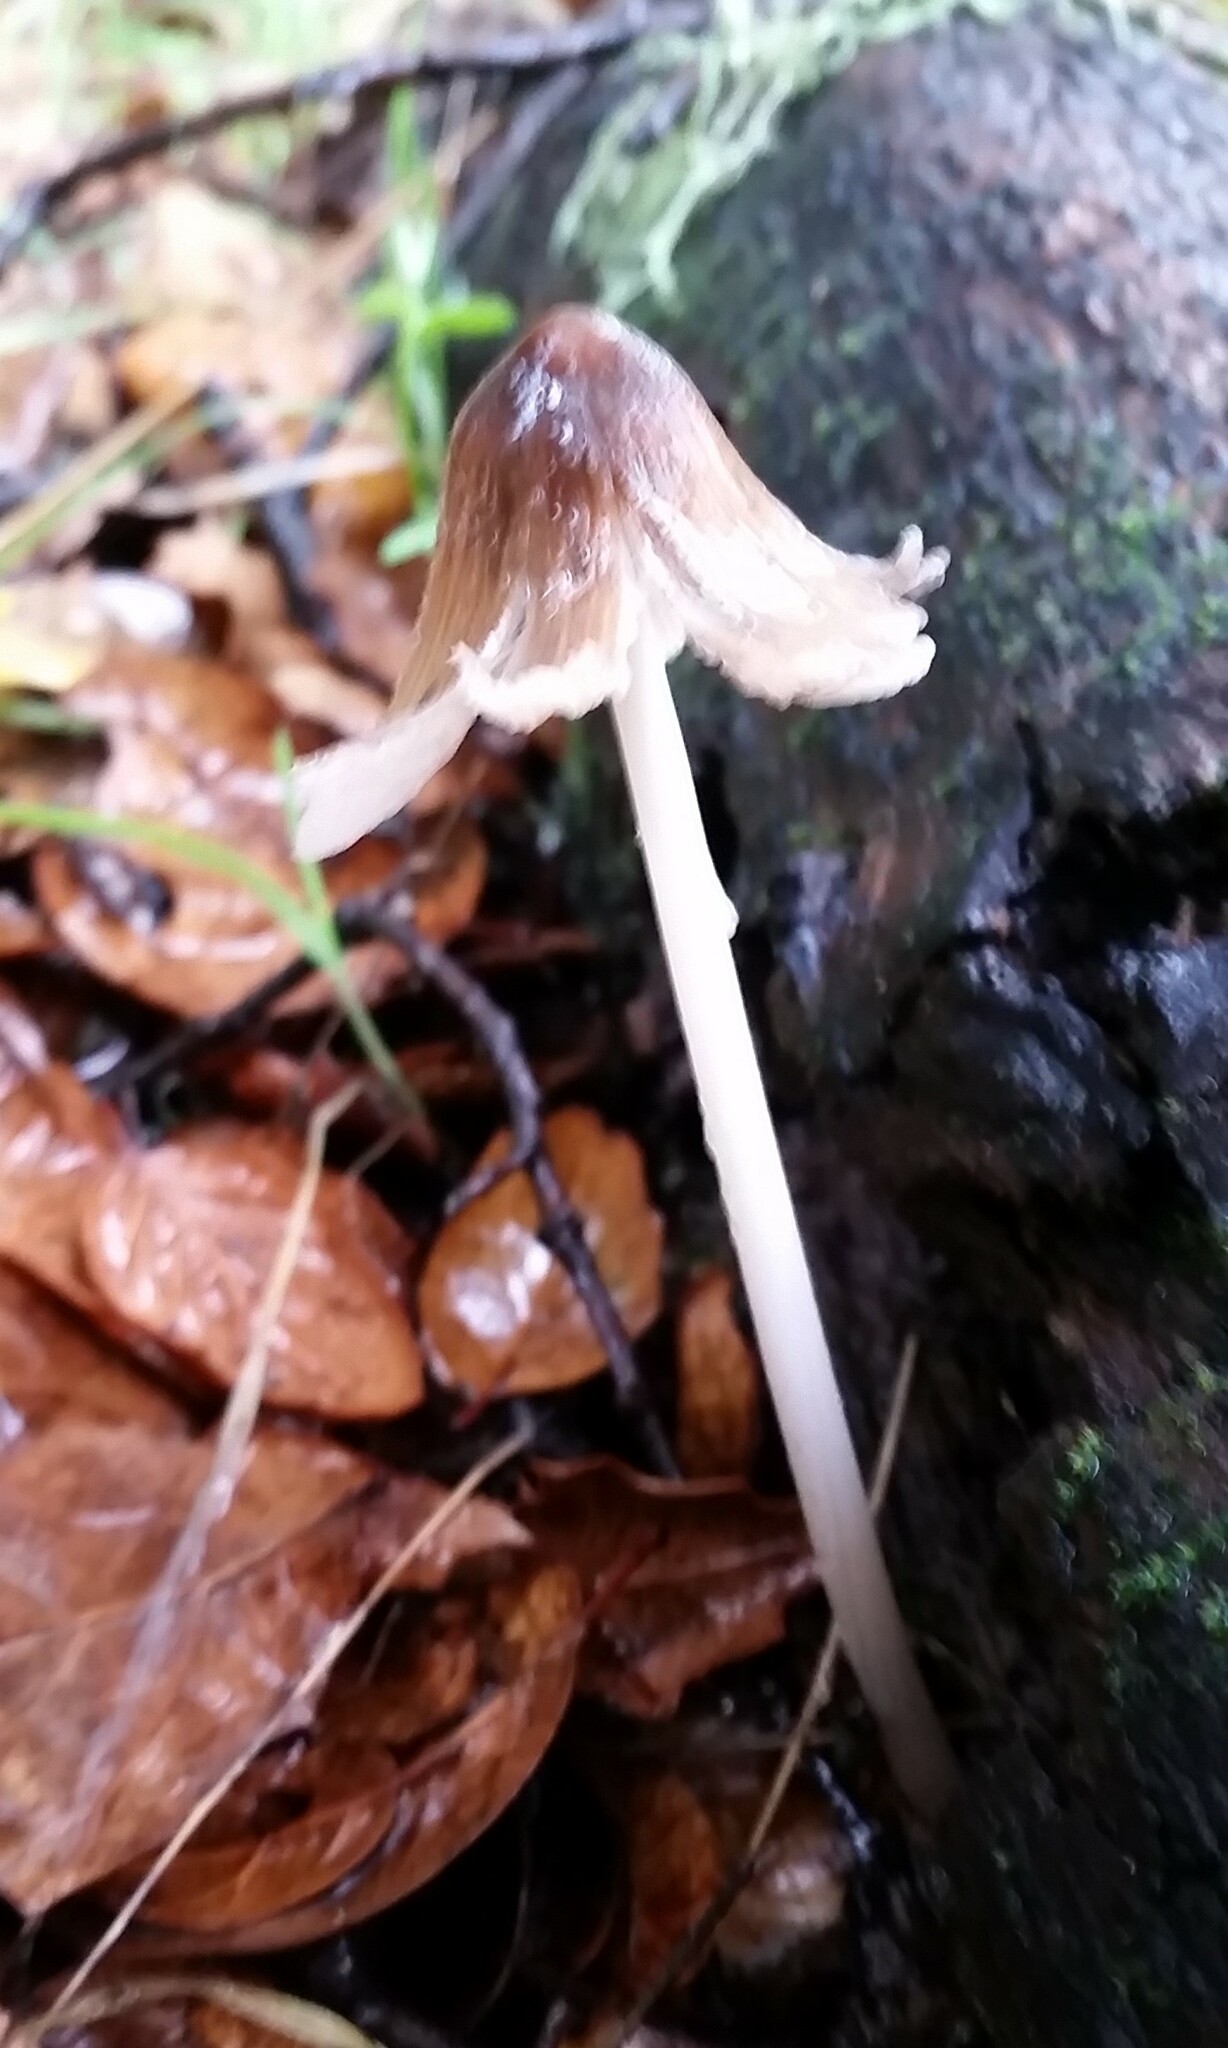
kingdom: Fungi
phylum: Basidiomycota
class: Agaricomycetes
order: Agaricales
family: Psathyrellaceae
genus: Coprinellus
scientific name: Coprinellus radians
